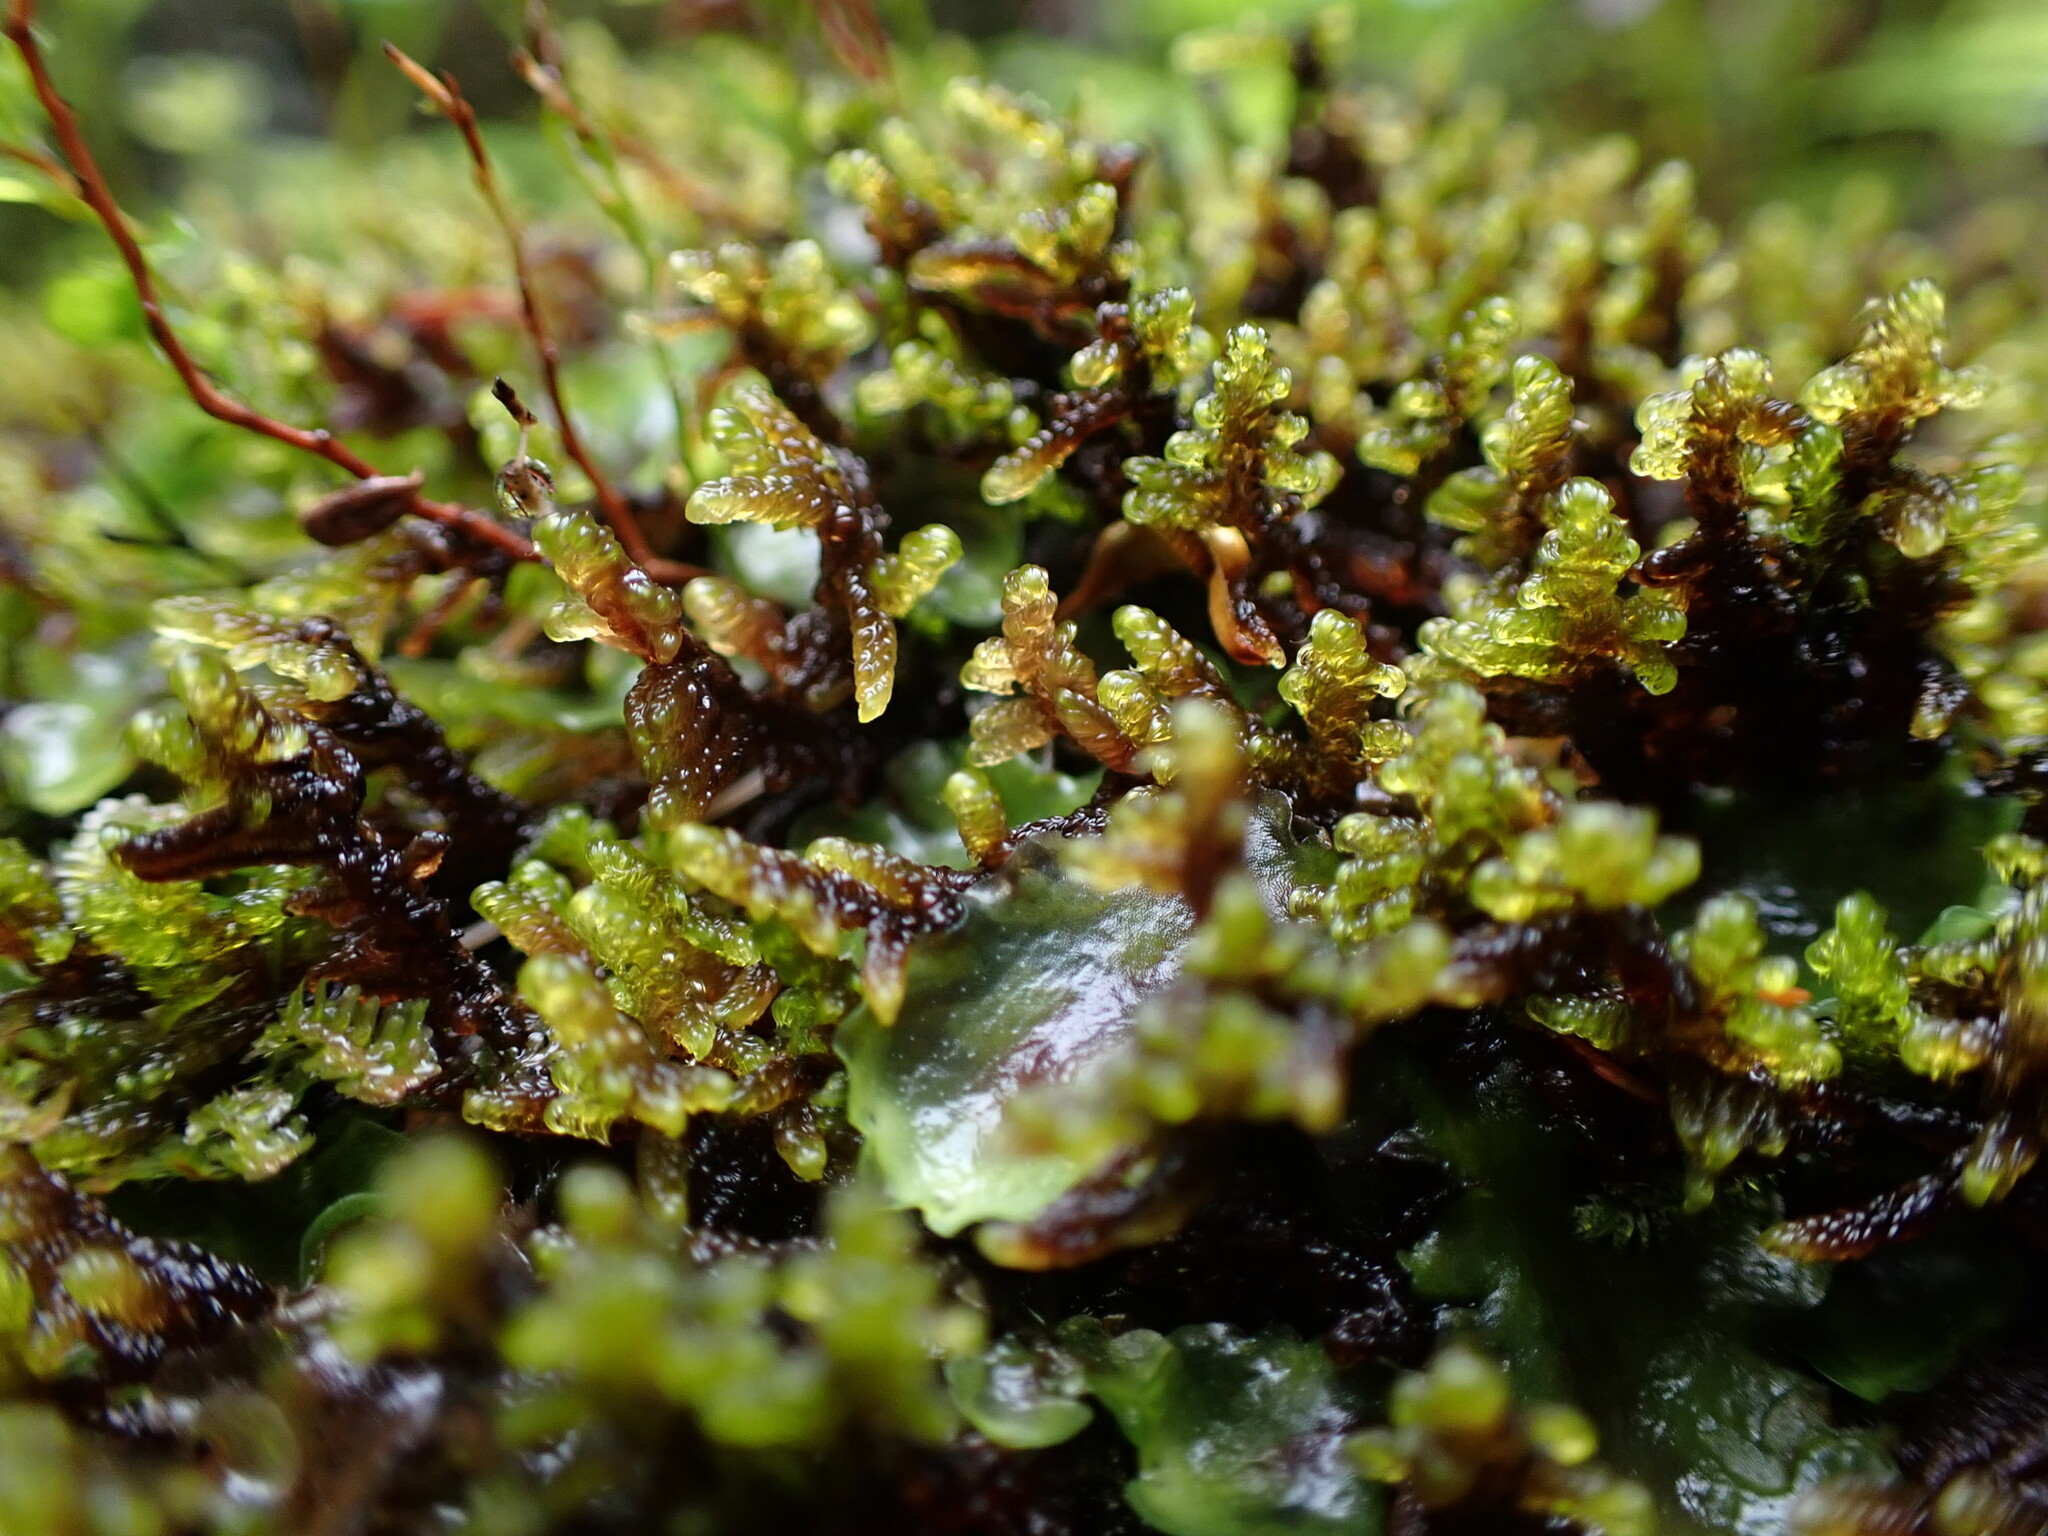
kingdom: Plantae
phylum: Bryophyta
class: Bryopsida
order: Hypnales
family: Pylaisiaceae
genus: Calliergonellopsis
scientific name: Calliergonellopsis dieckii
